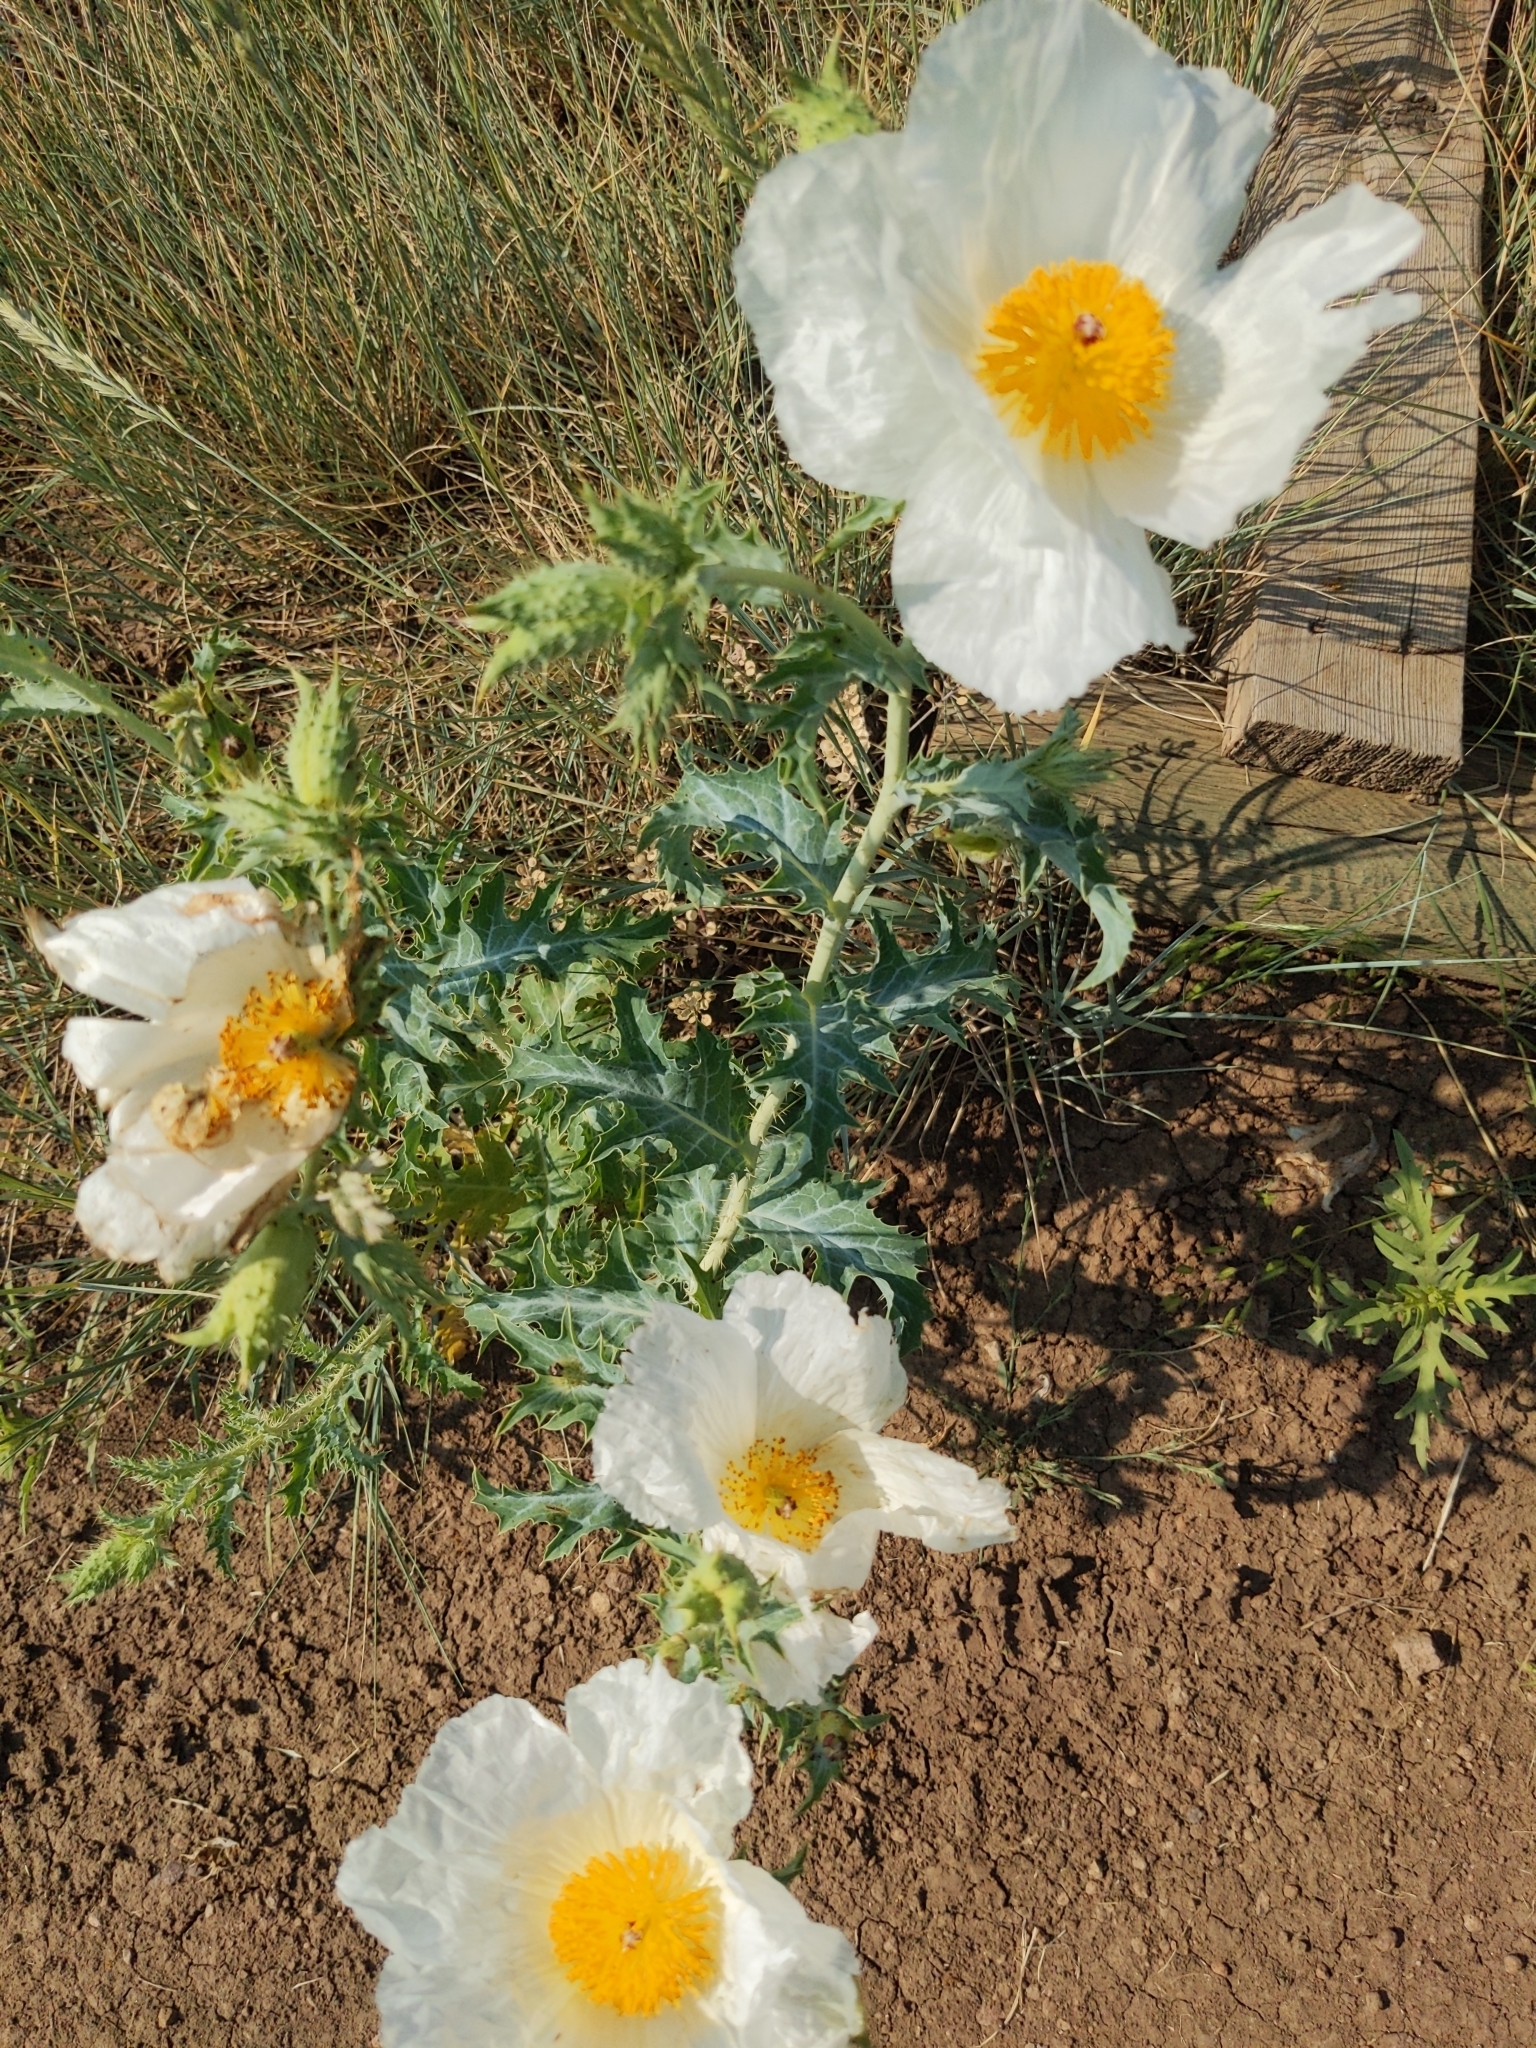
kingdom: Plantae
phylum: Tracheophyta
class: Magnoliopsida
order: Ranunculales
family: Papaveraceae
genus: Argemone
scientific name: Argemone polyanthemos
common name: Plains prickly-poppy
